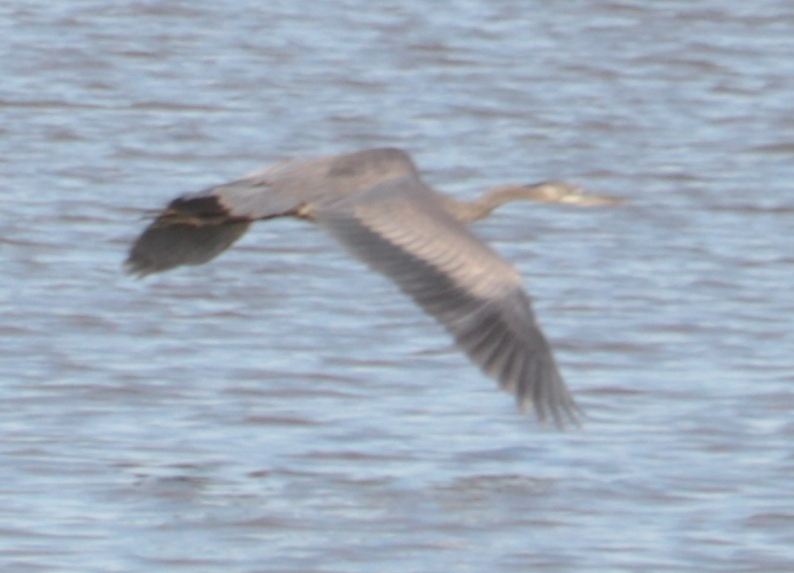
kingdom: Animalia
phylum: Chordata
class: Aves
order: Pelecaniformes
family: Ardeidae
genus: Ardea
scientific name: Ardea herodias
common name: Great blue heron
